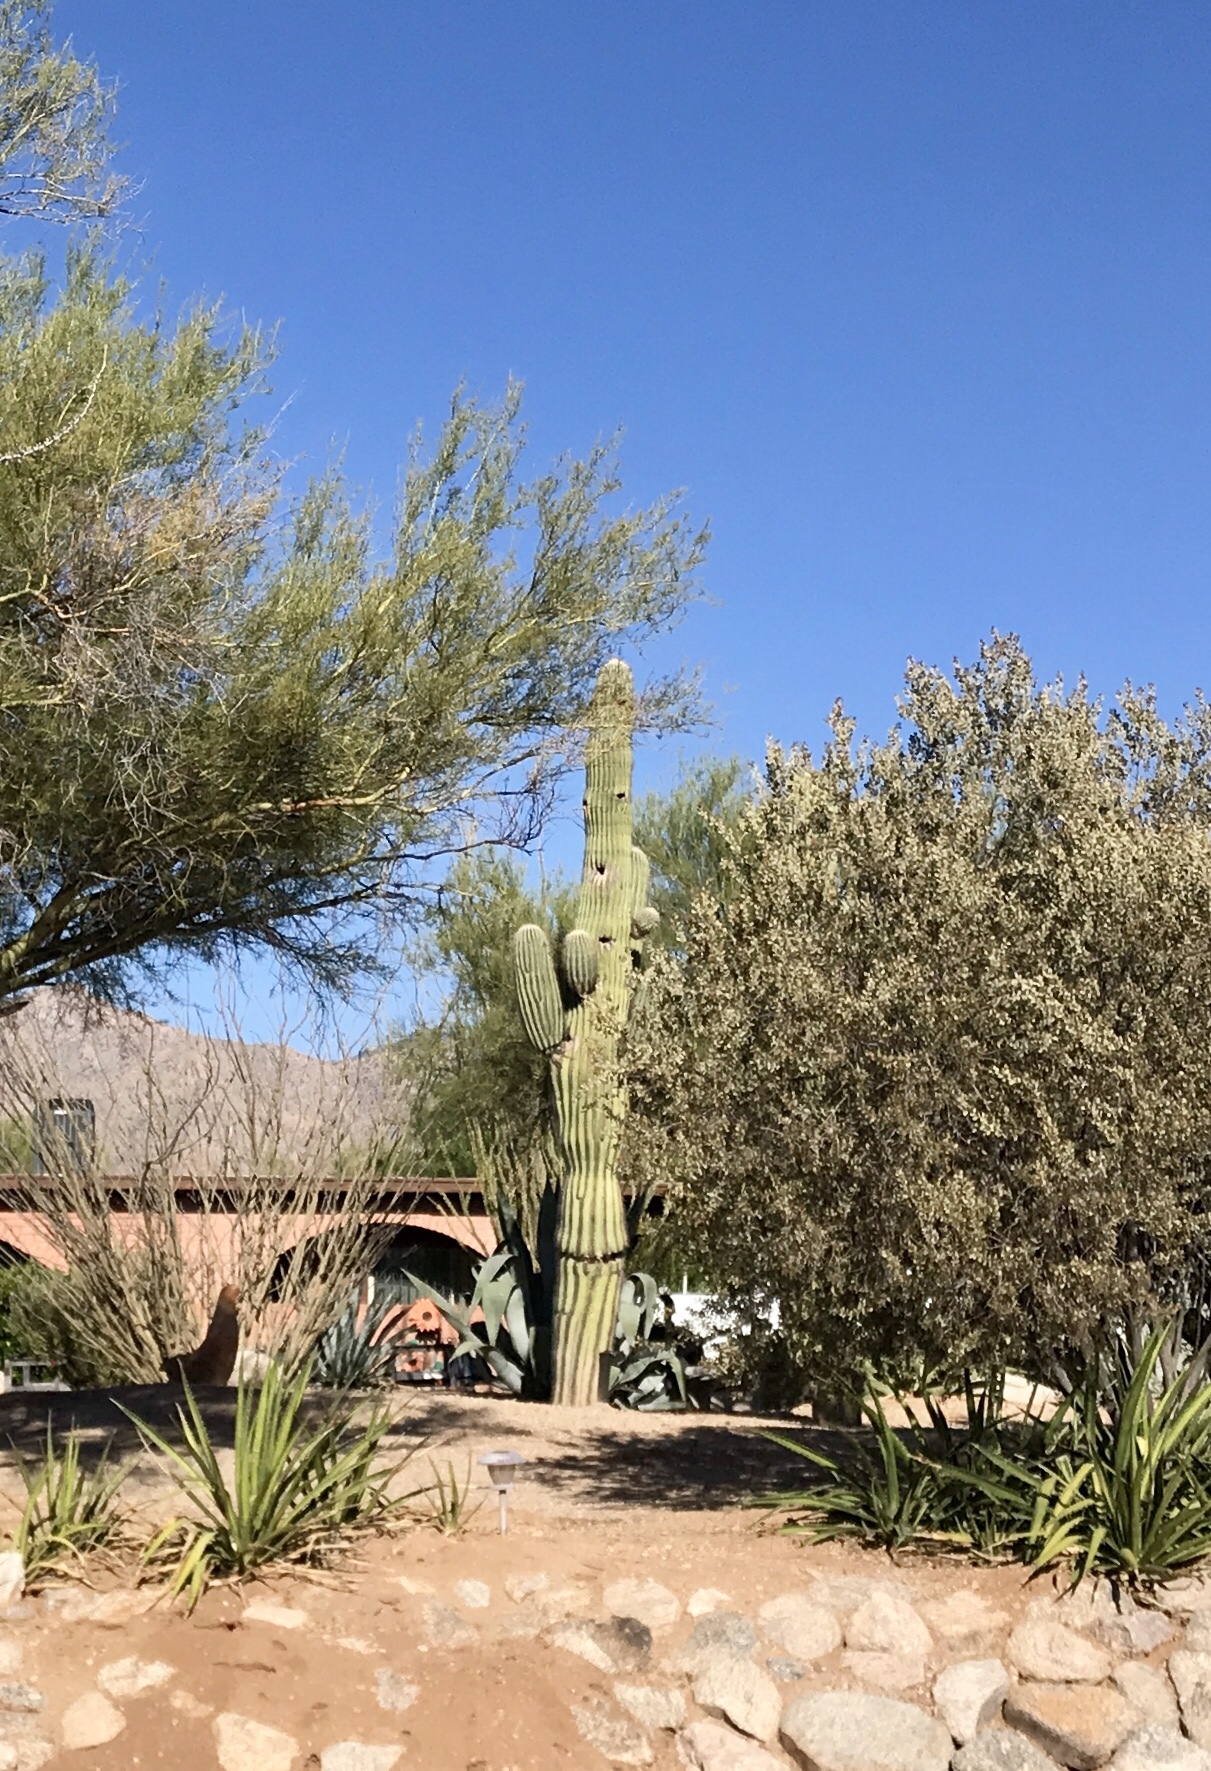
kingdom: Plantae
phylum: Tracheophyta
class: Magnoliopsida
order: Caryophyllales
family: Cactaceae
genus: Carnegiea
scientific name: Carnegiea gigantea
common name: Saguaro
